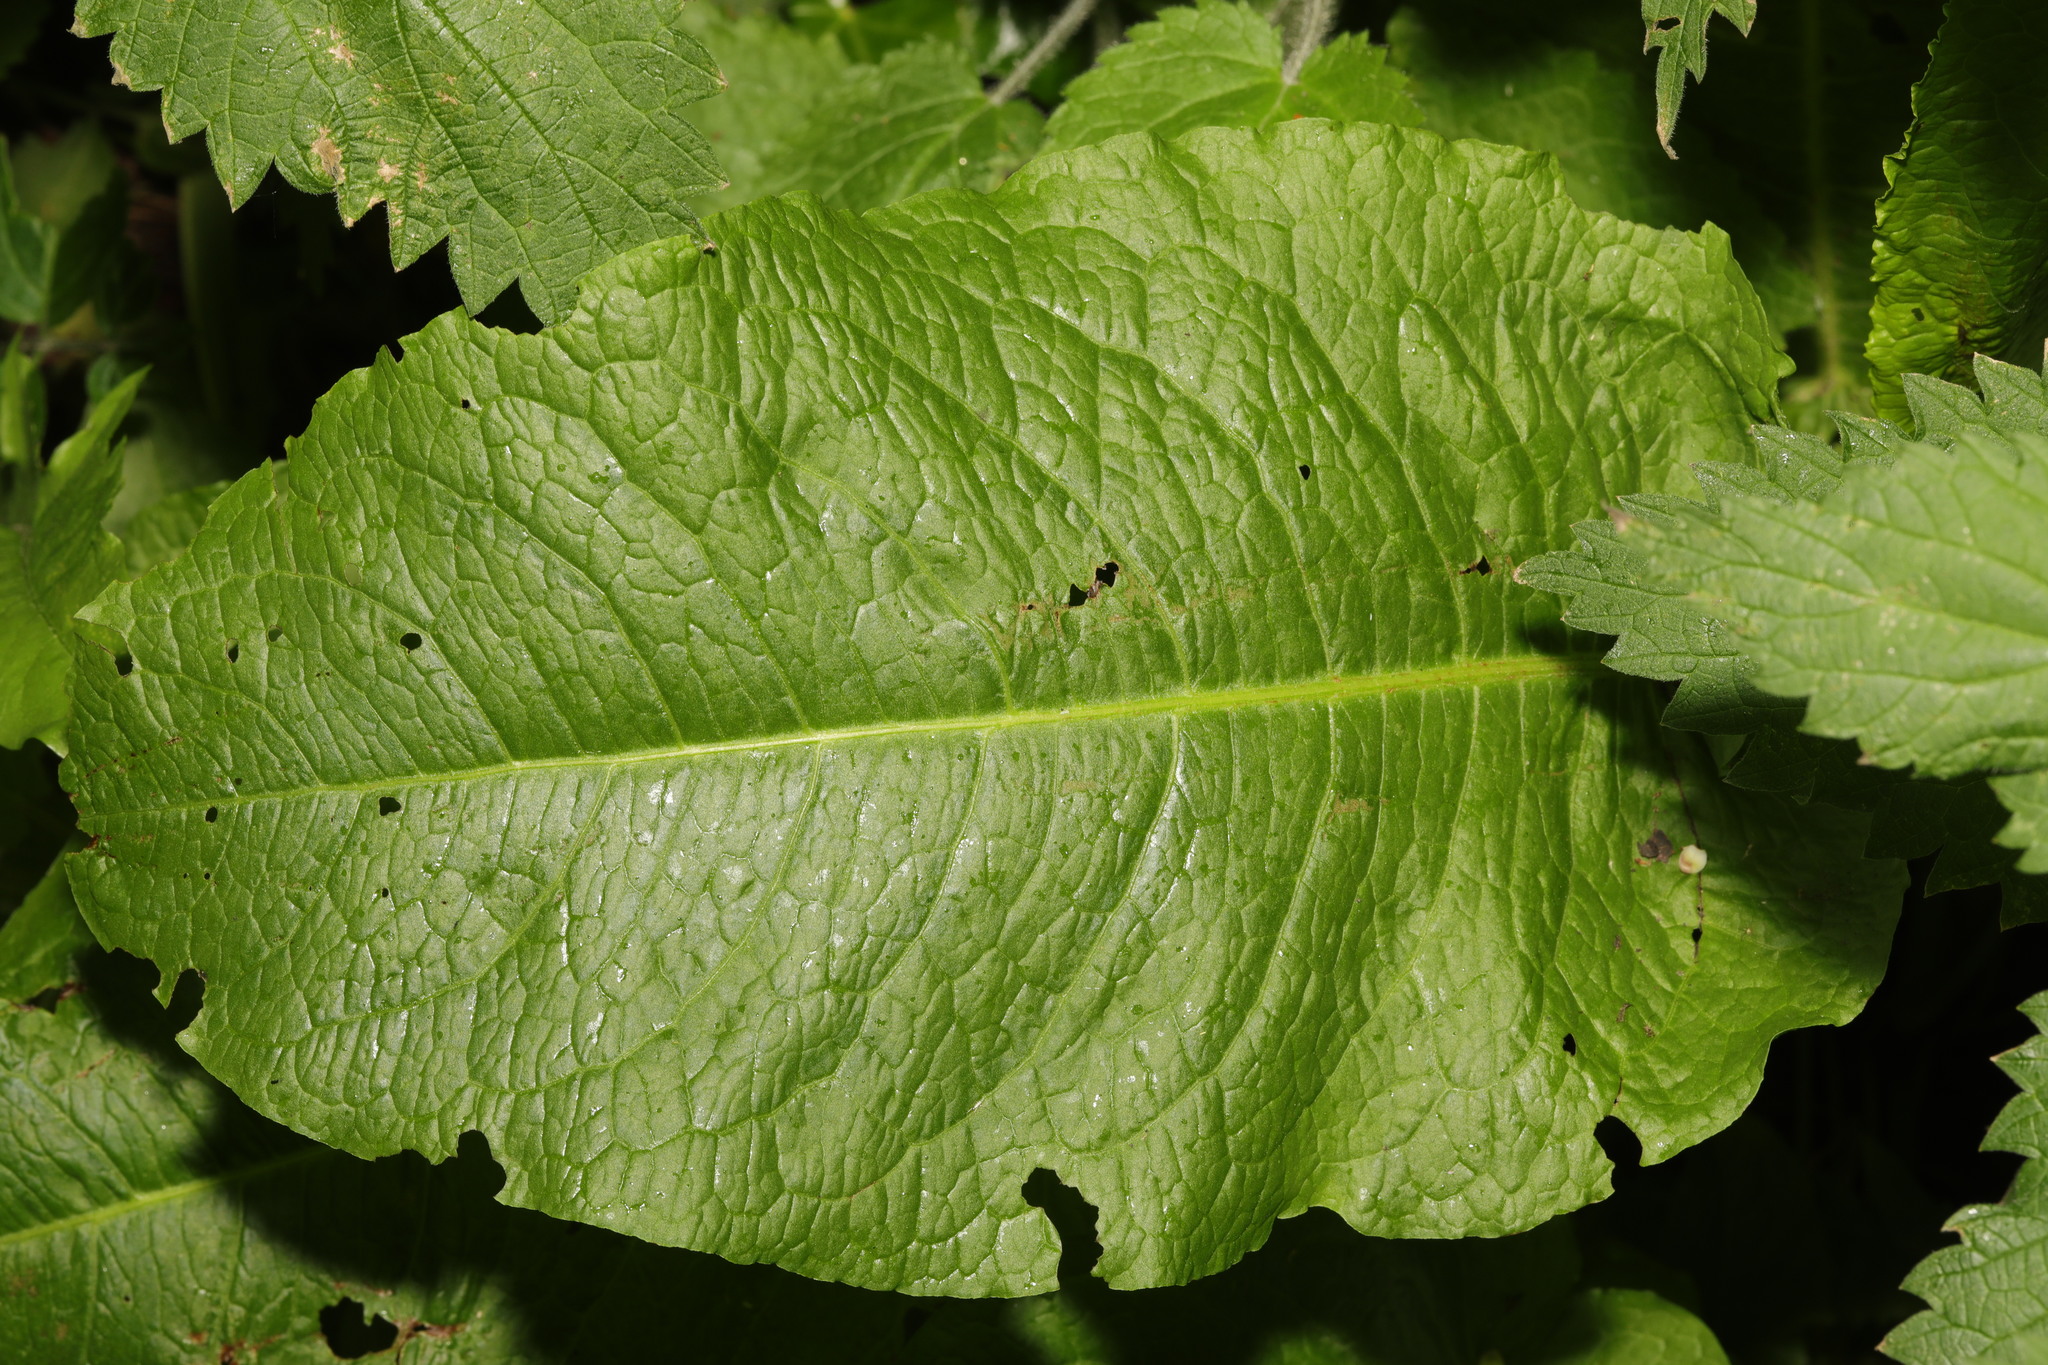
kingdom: Plantae
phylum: Tracheophyta
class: Magnoliopsida
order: Caryophyllales
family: Polygonaceae
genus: Rumex
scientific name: Rumex obtusifolius
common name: Bitter dock
